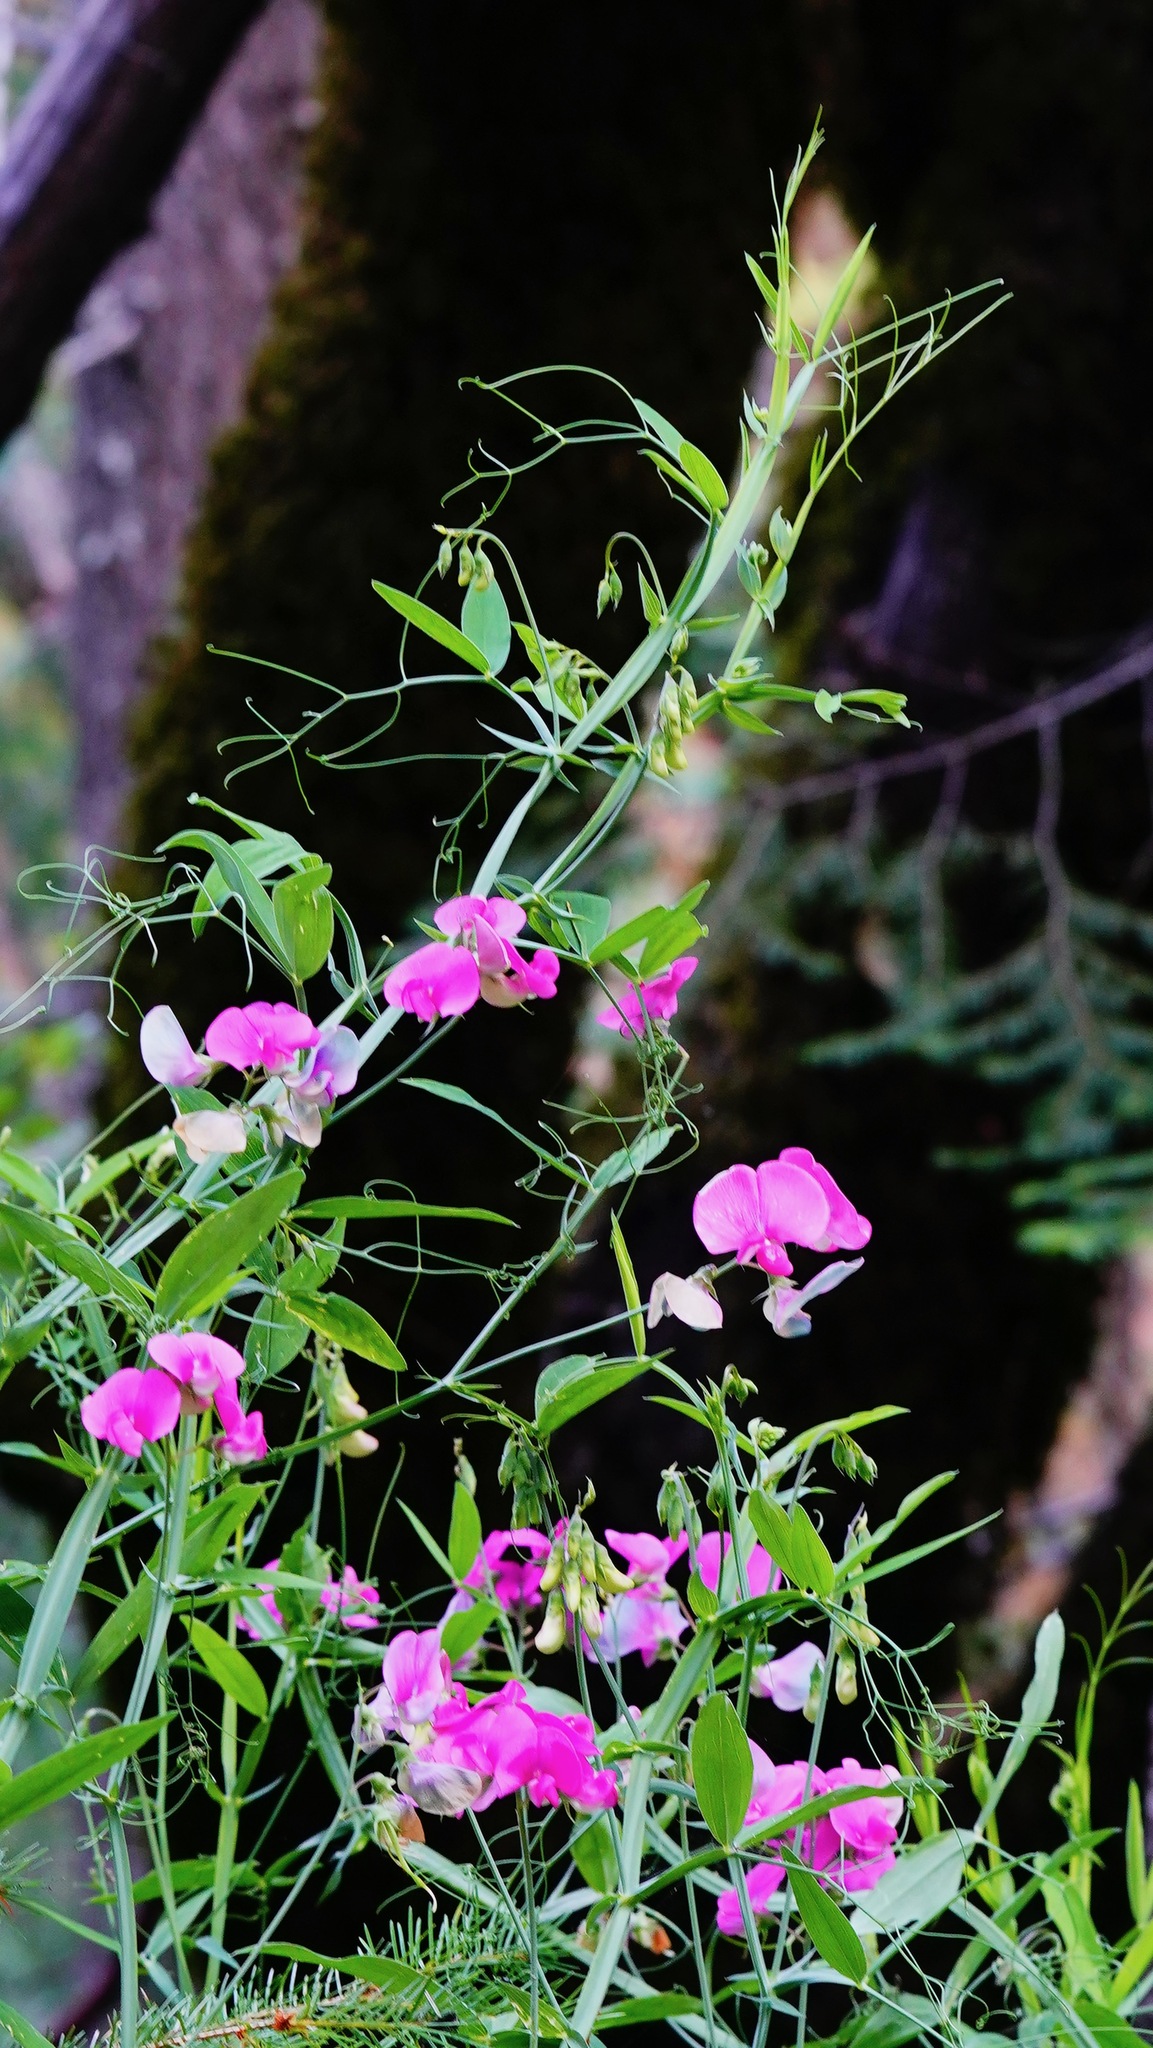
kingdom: Plantae
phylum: Tracheophyta
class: Magnoliopsida
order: Fabales
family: Fabaceae
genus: Lathyrus
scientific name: Lathyrus latifolius
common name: Perennial pea
